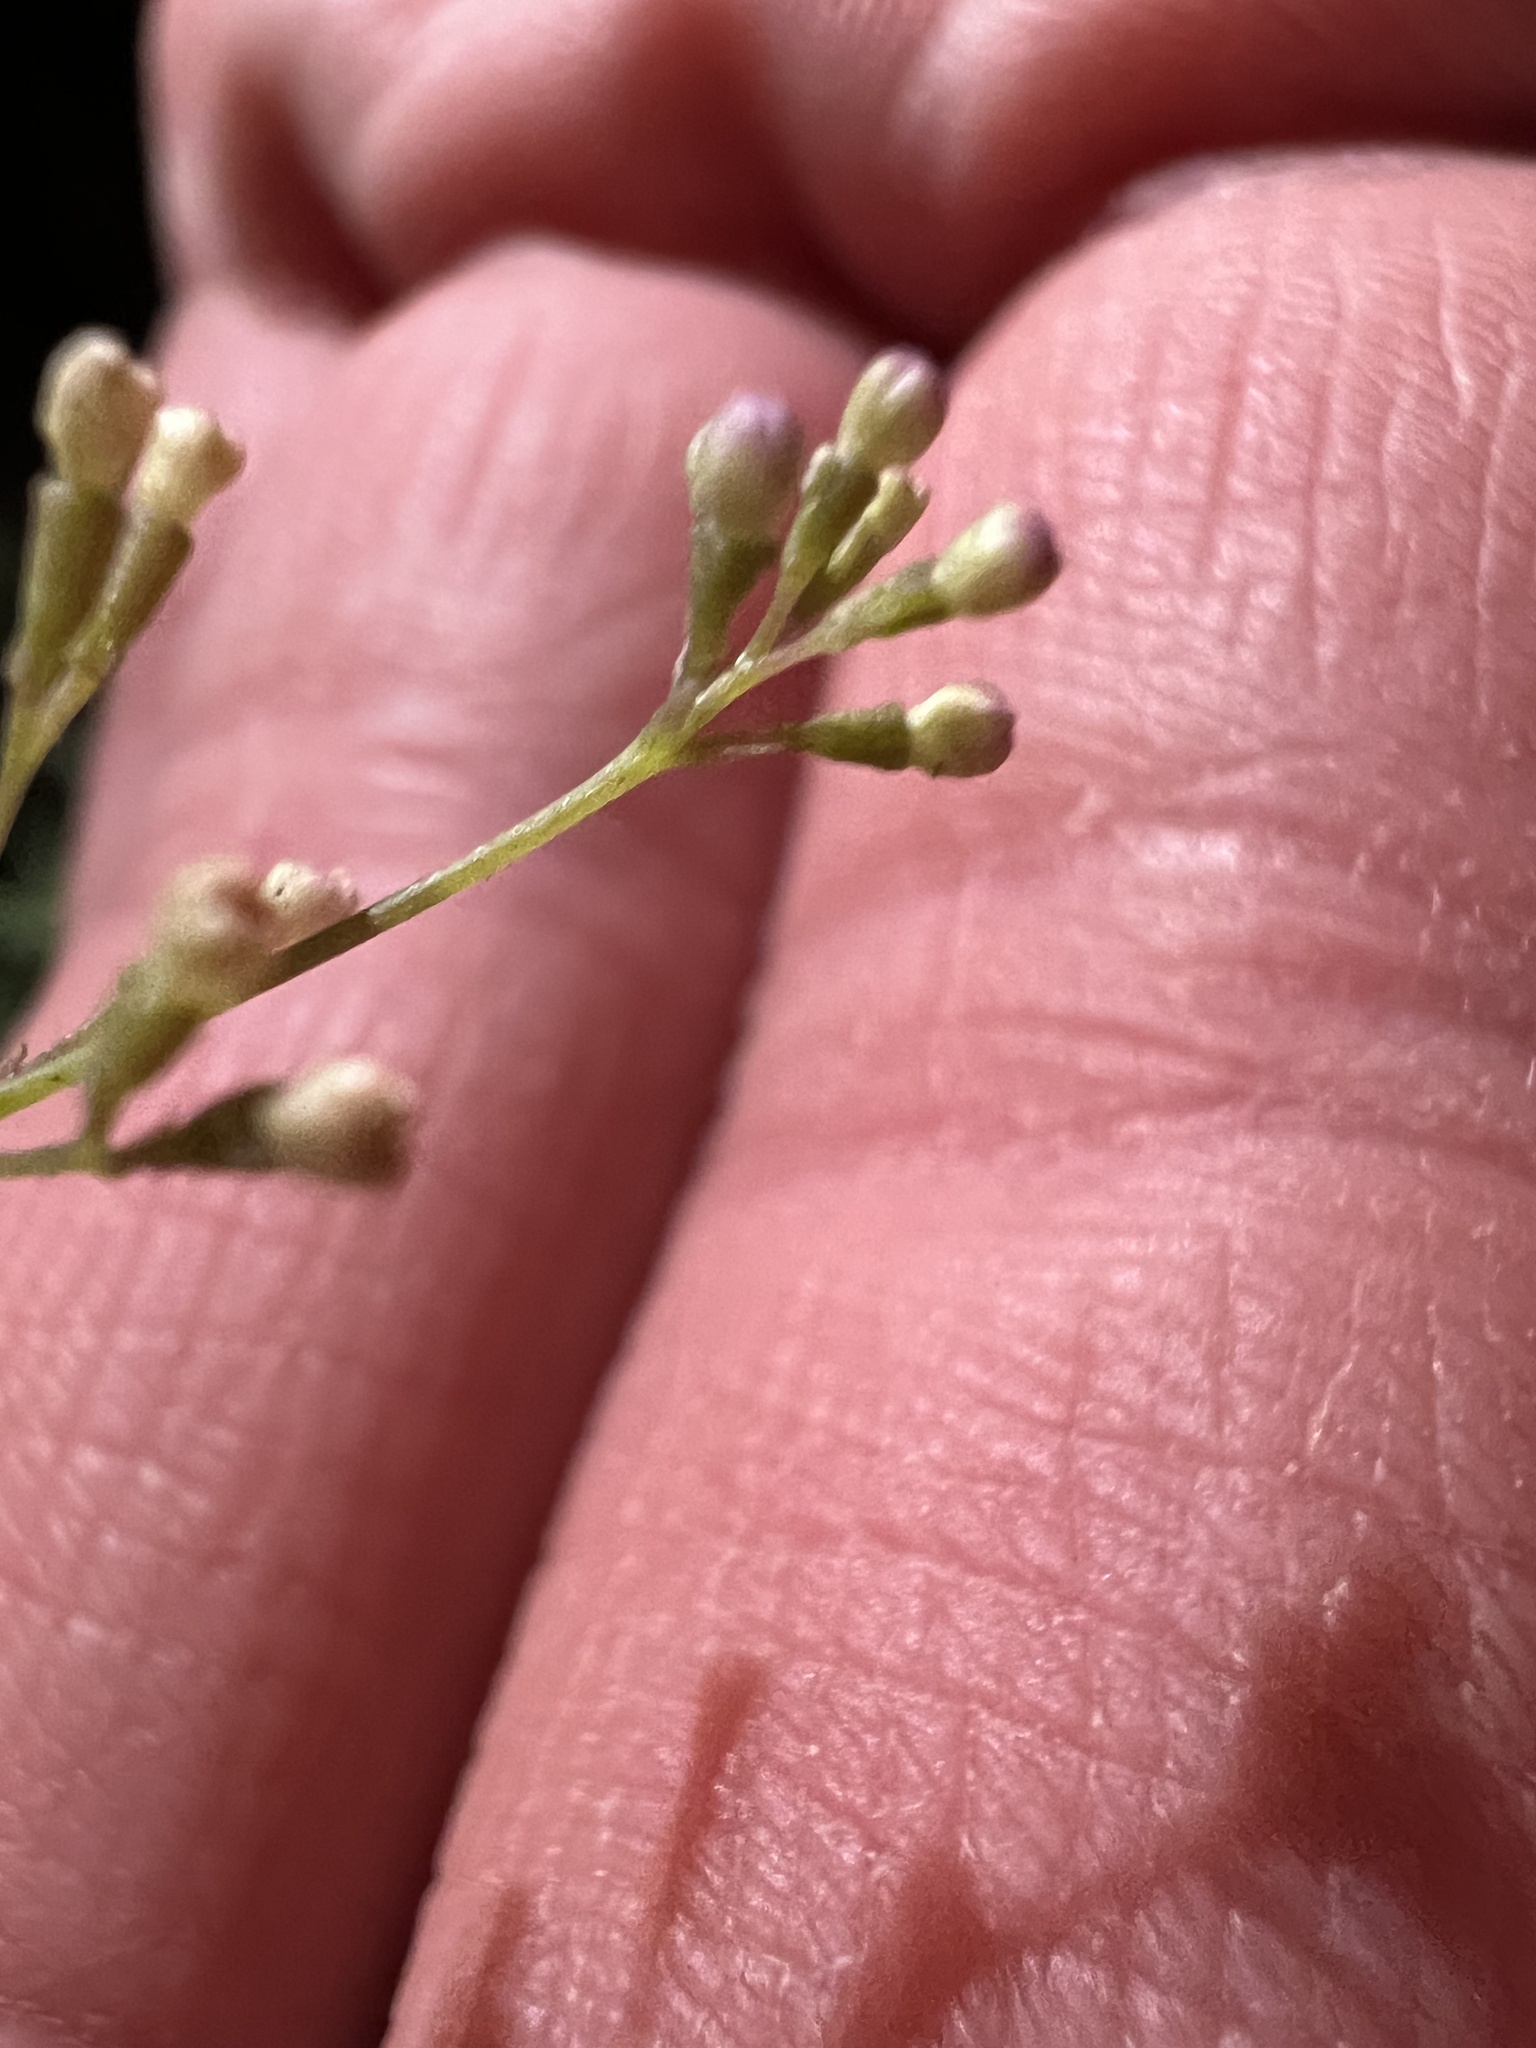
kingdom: Plantae
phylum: Tracheophyta
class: Magnoliopsida
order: Caryophyllales
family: Nyctaginaceae
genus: Boerhavia
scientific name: Boerhavia erecta
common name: Erect spiderling
